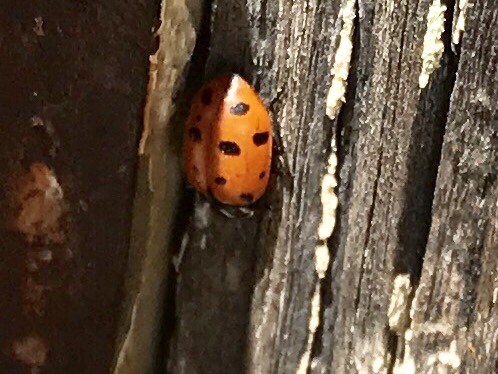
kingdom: Animalia
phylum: Arthropoda
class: Insecta
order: Coleoptera
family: Coccinellidae
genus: Hippodamia
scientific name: Hippodamia convergens
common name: Convergent lady beetle
